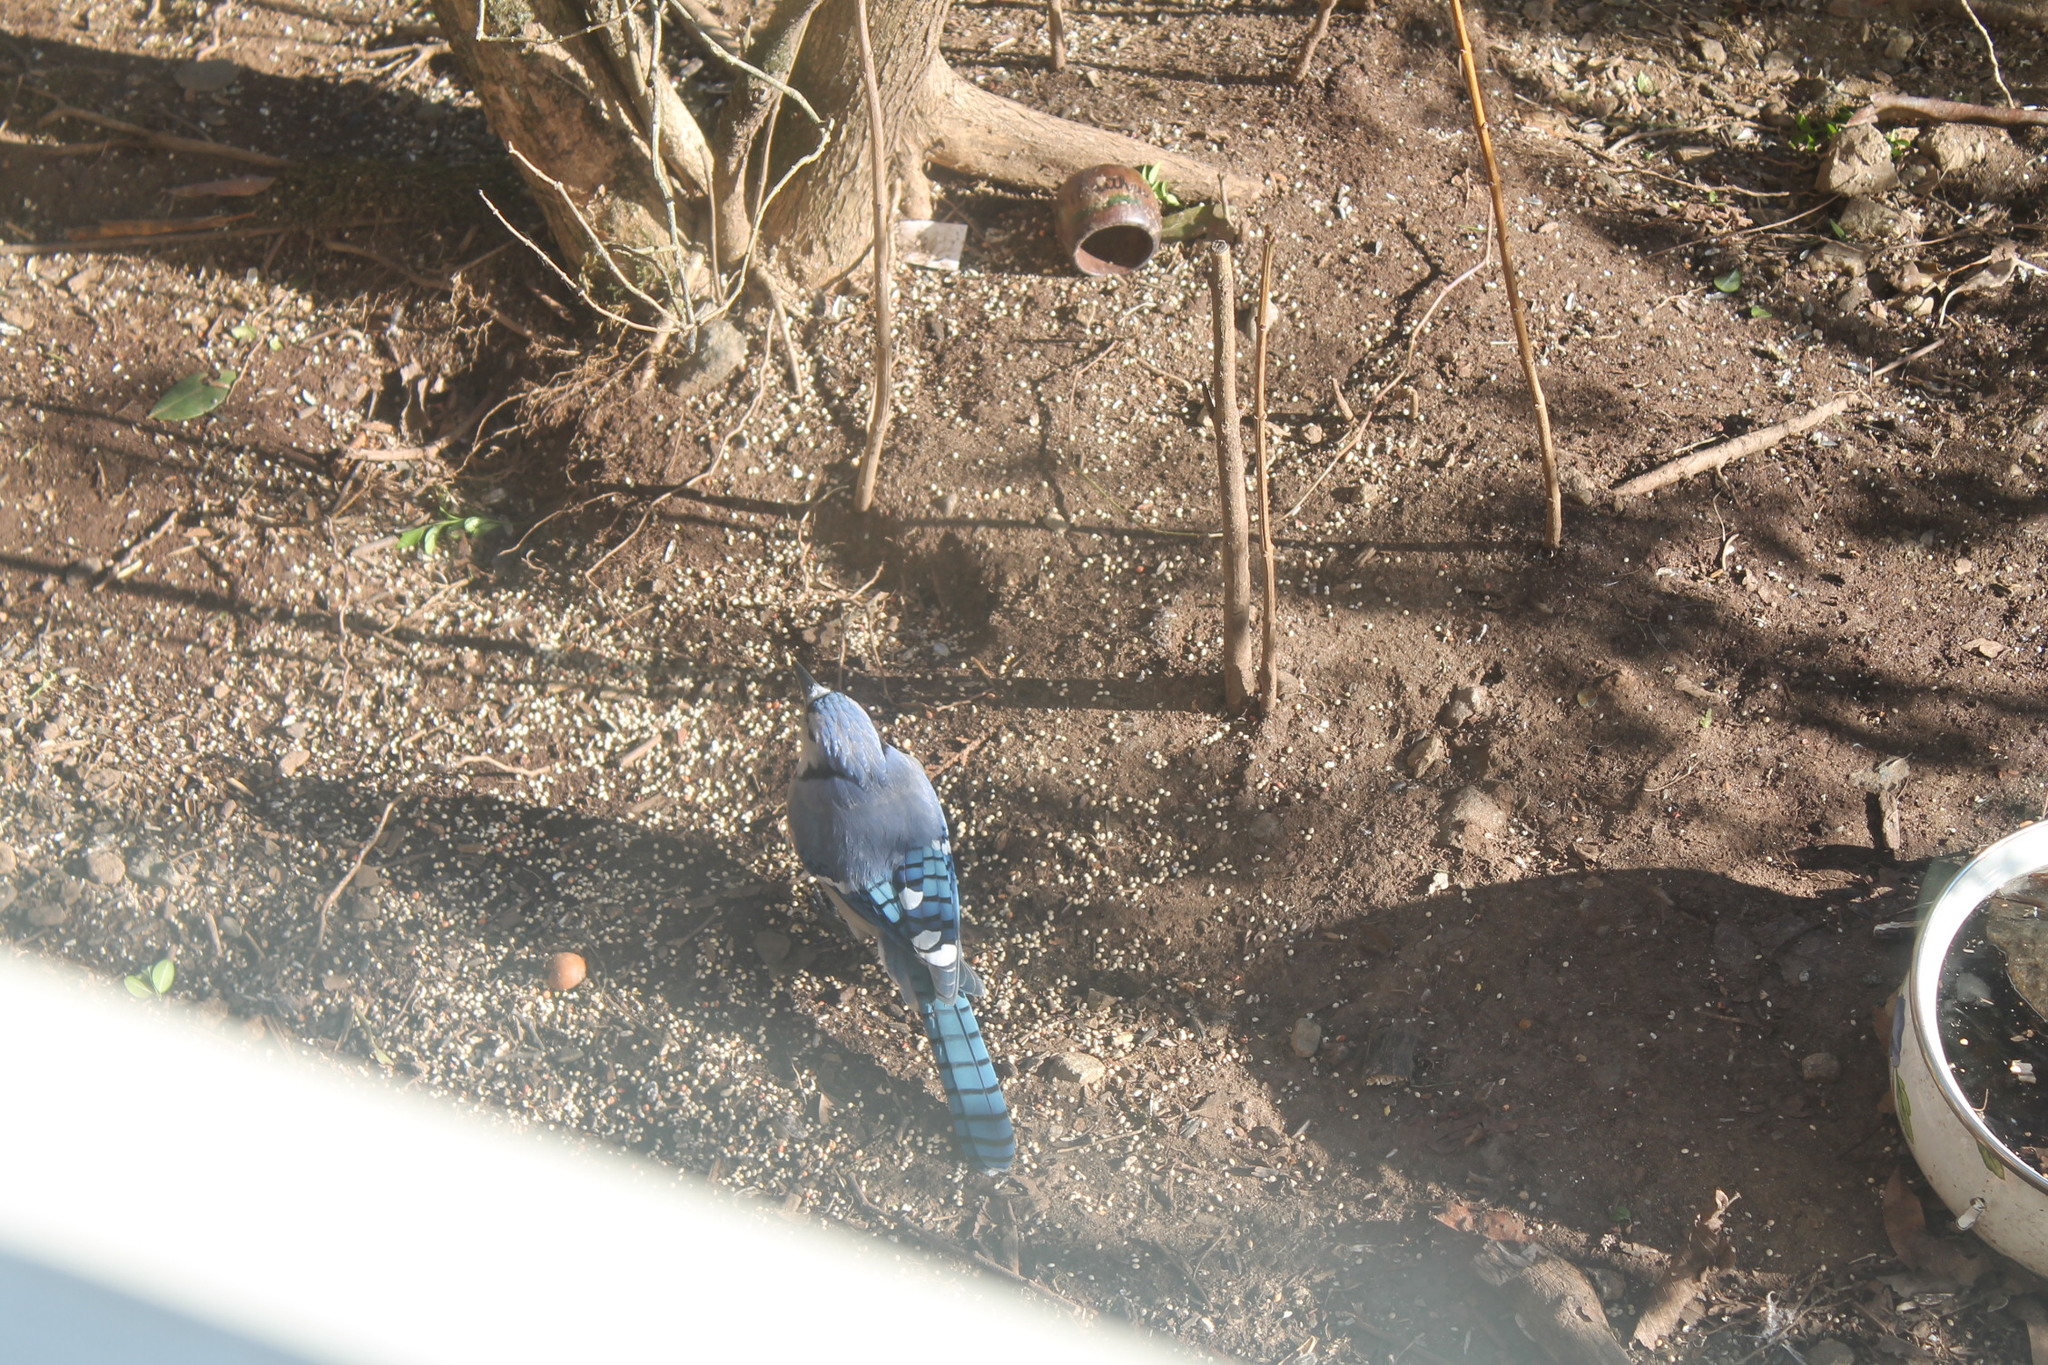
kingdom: Animalia
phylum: Chordata
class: Aves
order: Passeriformes
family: Corvidae
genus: Cyanocitta
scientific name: Cyanocitta cristata
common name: Blue jay
